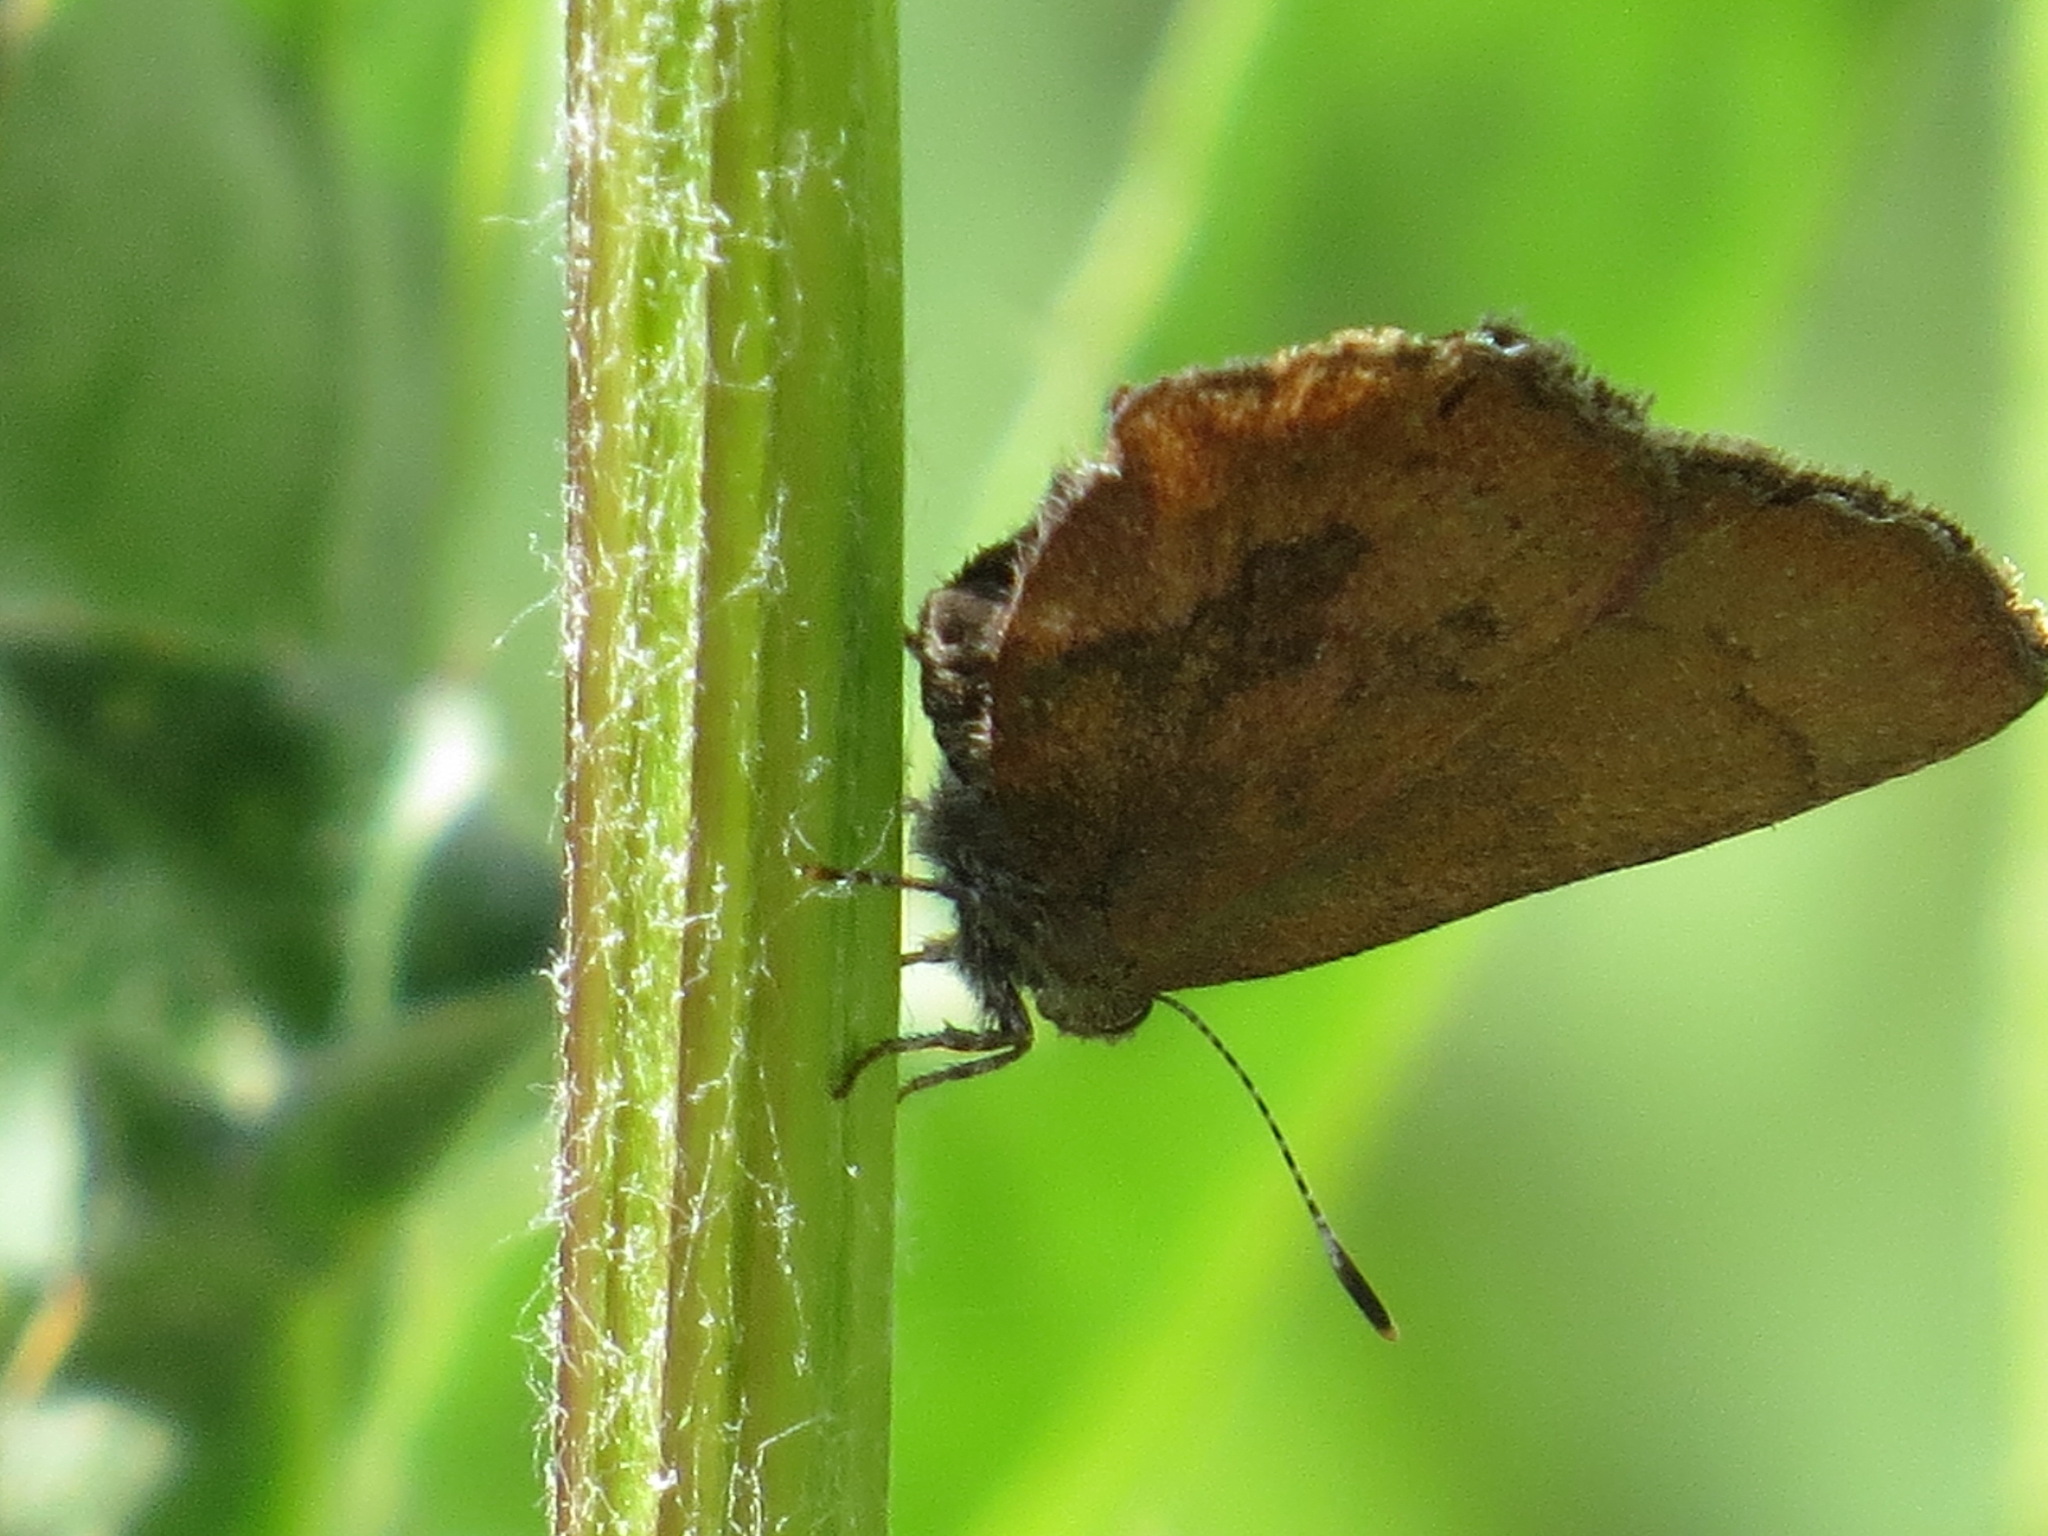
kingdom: Animalia
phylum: Arthropoda
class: Insecta
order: Lepidoptera
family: Lycaenidae
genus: Incisalia
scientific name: Incisalia irioides
